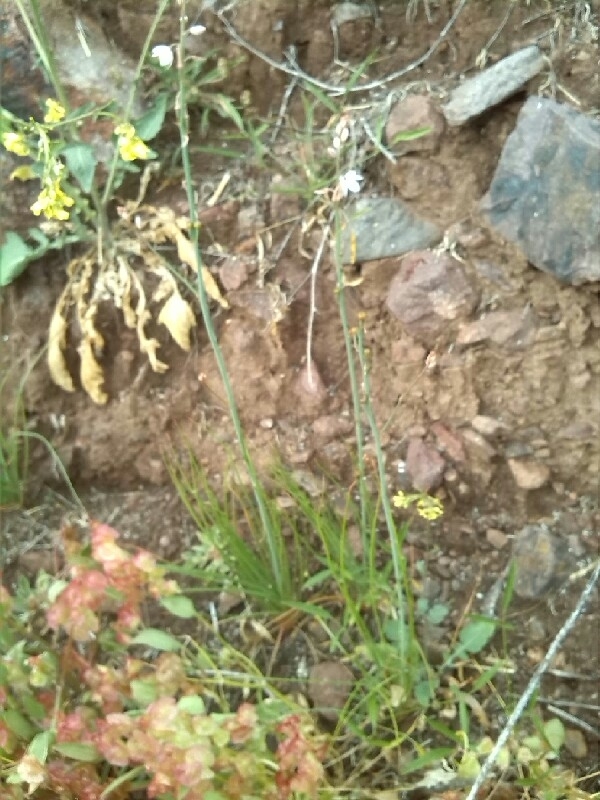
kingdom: Plantae
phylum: Tracheophyta
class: Liliopsida
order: Asparagales
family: Asphodelaceae
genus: Asphodelus
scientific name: Asphodelus tenuifolius
